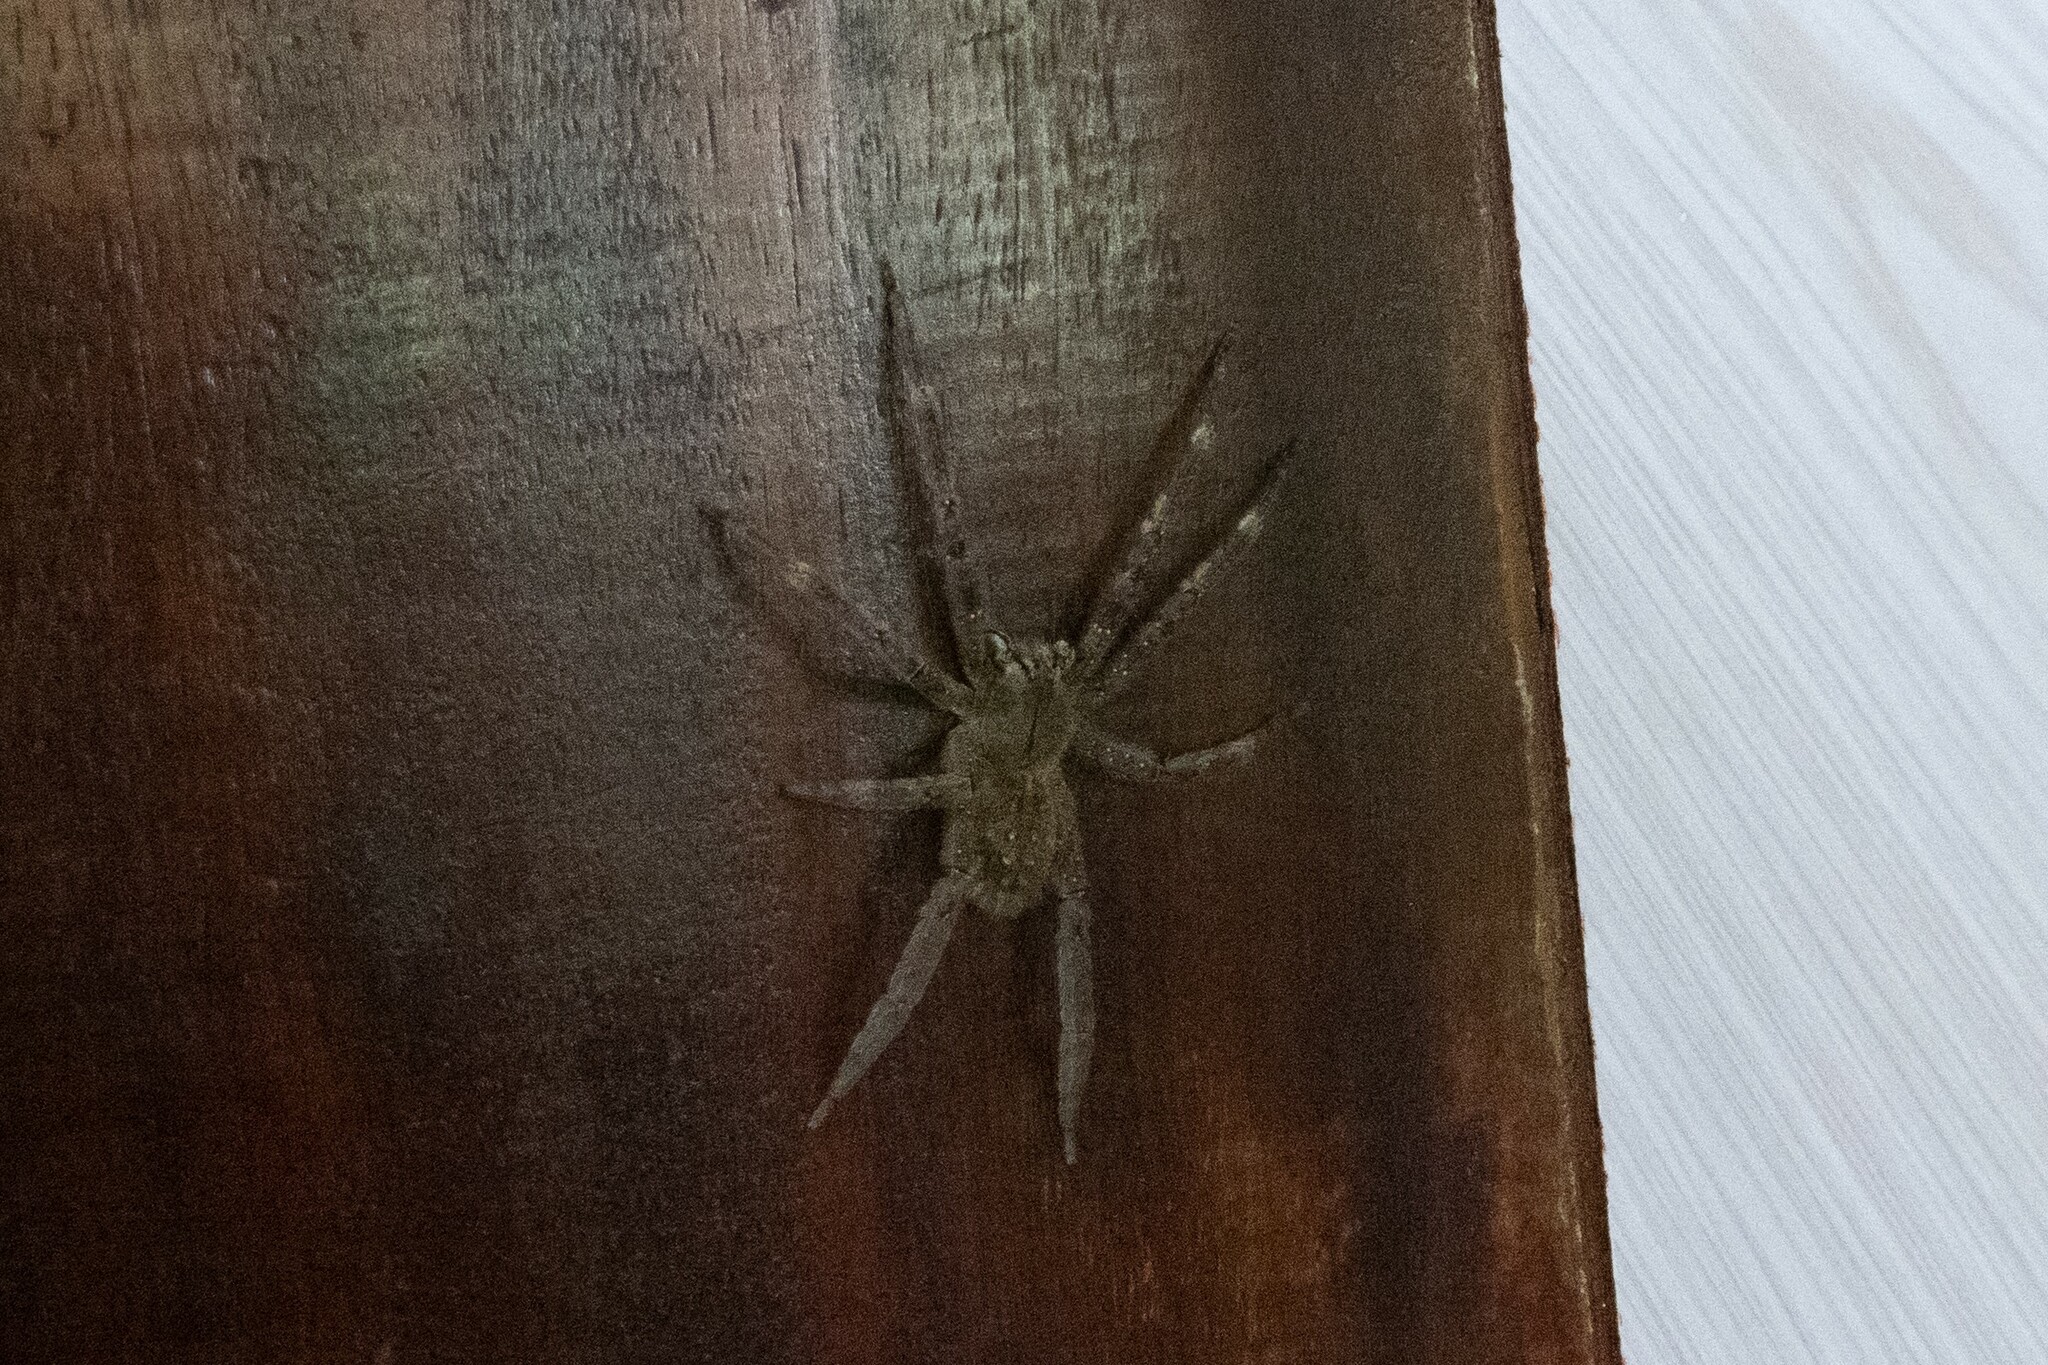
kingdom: Animalia
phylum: Arthropoda
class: Arachnida
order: Araneae
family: Ctenidae
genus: Phoneutria
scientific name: Phoneutria fera
